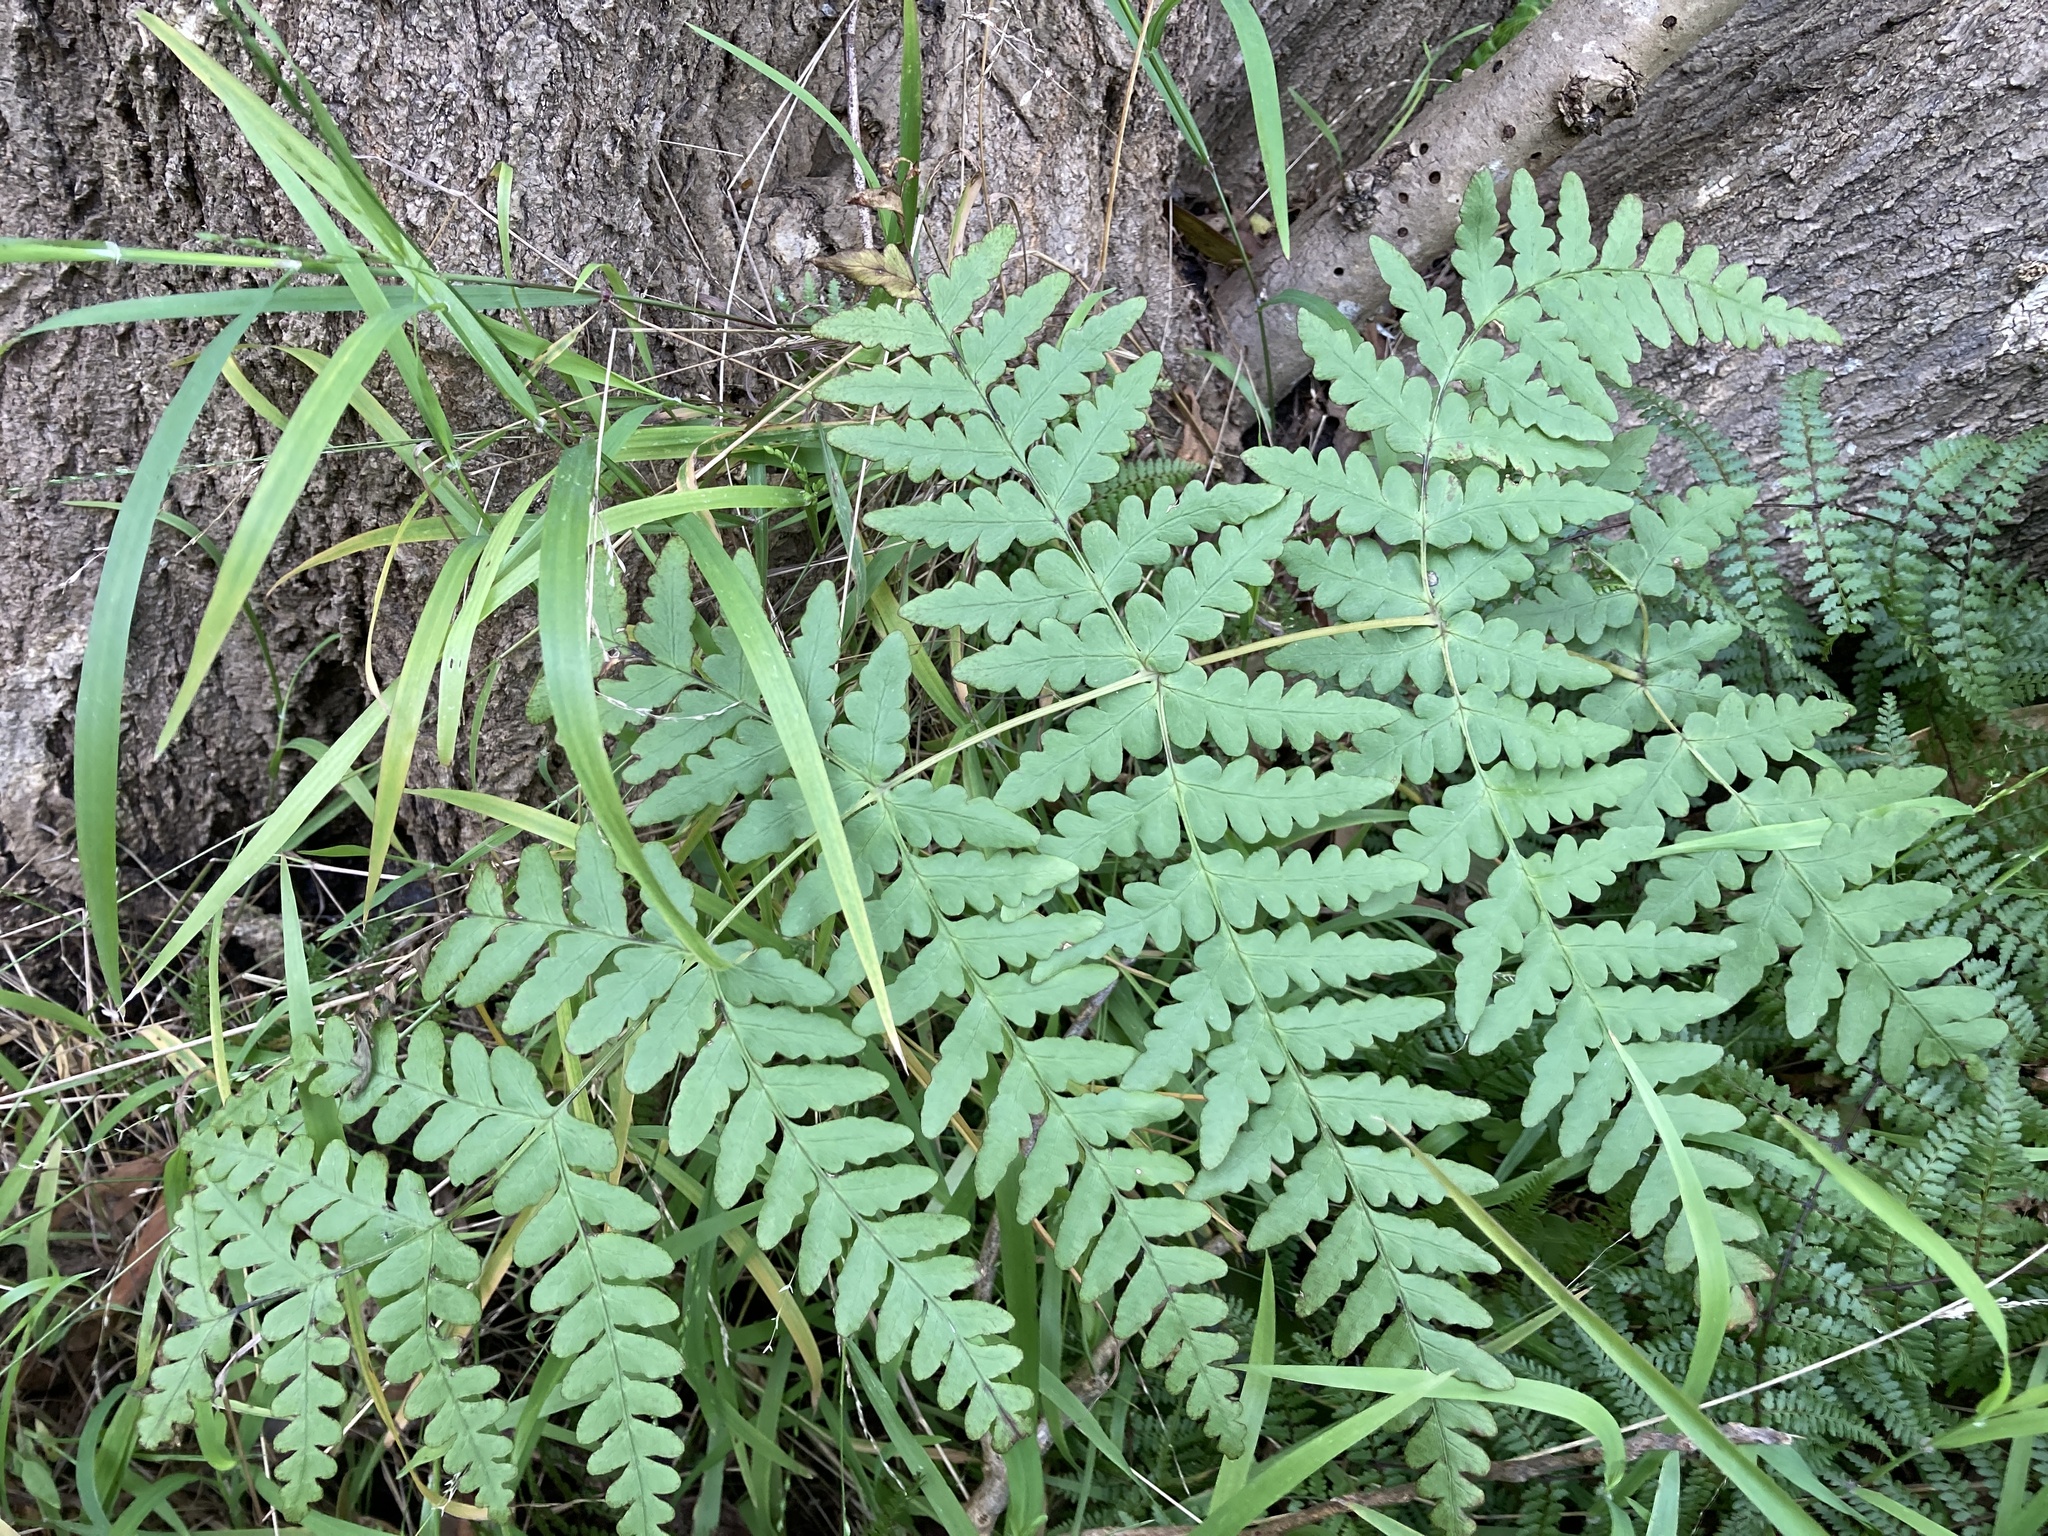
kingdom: Plantae
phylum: Tracheophyta
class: Polypodiopsida
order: Polypodiales
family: Dennstaedtiaceae
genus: Histiopteris
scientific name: Histiopteris incisa
